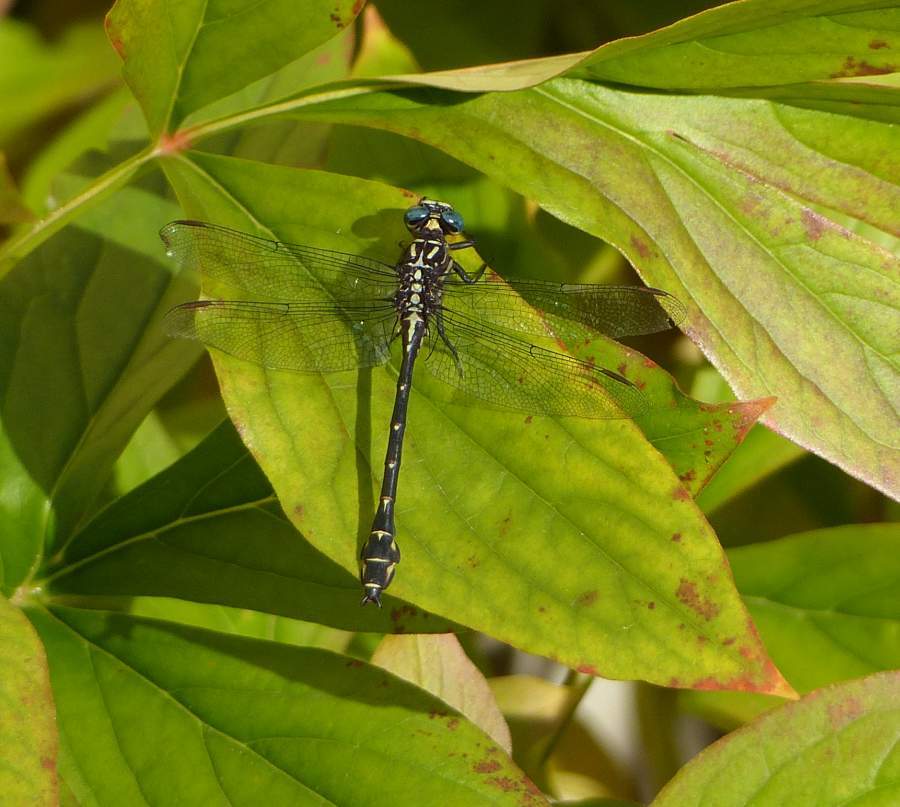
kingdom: Animalia
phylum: Arthropoda
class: Insecta
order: Odonata
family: Gomphidae
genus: Stylurus
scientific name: Stylurus notatus
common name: Elusive clubtail
